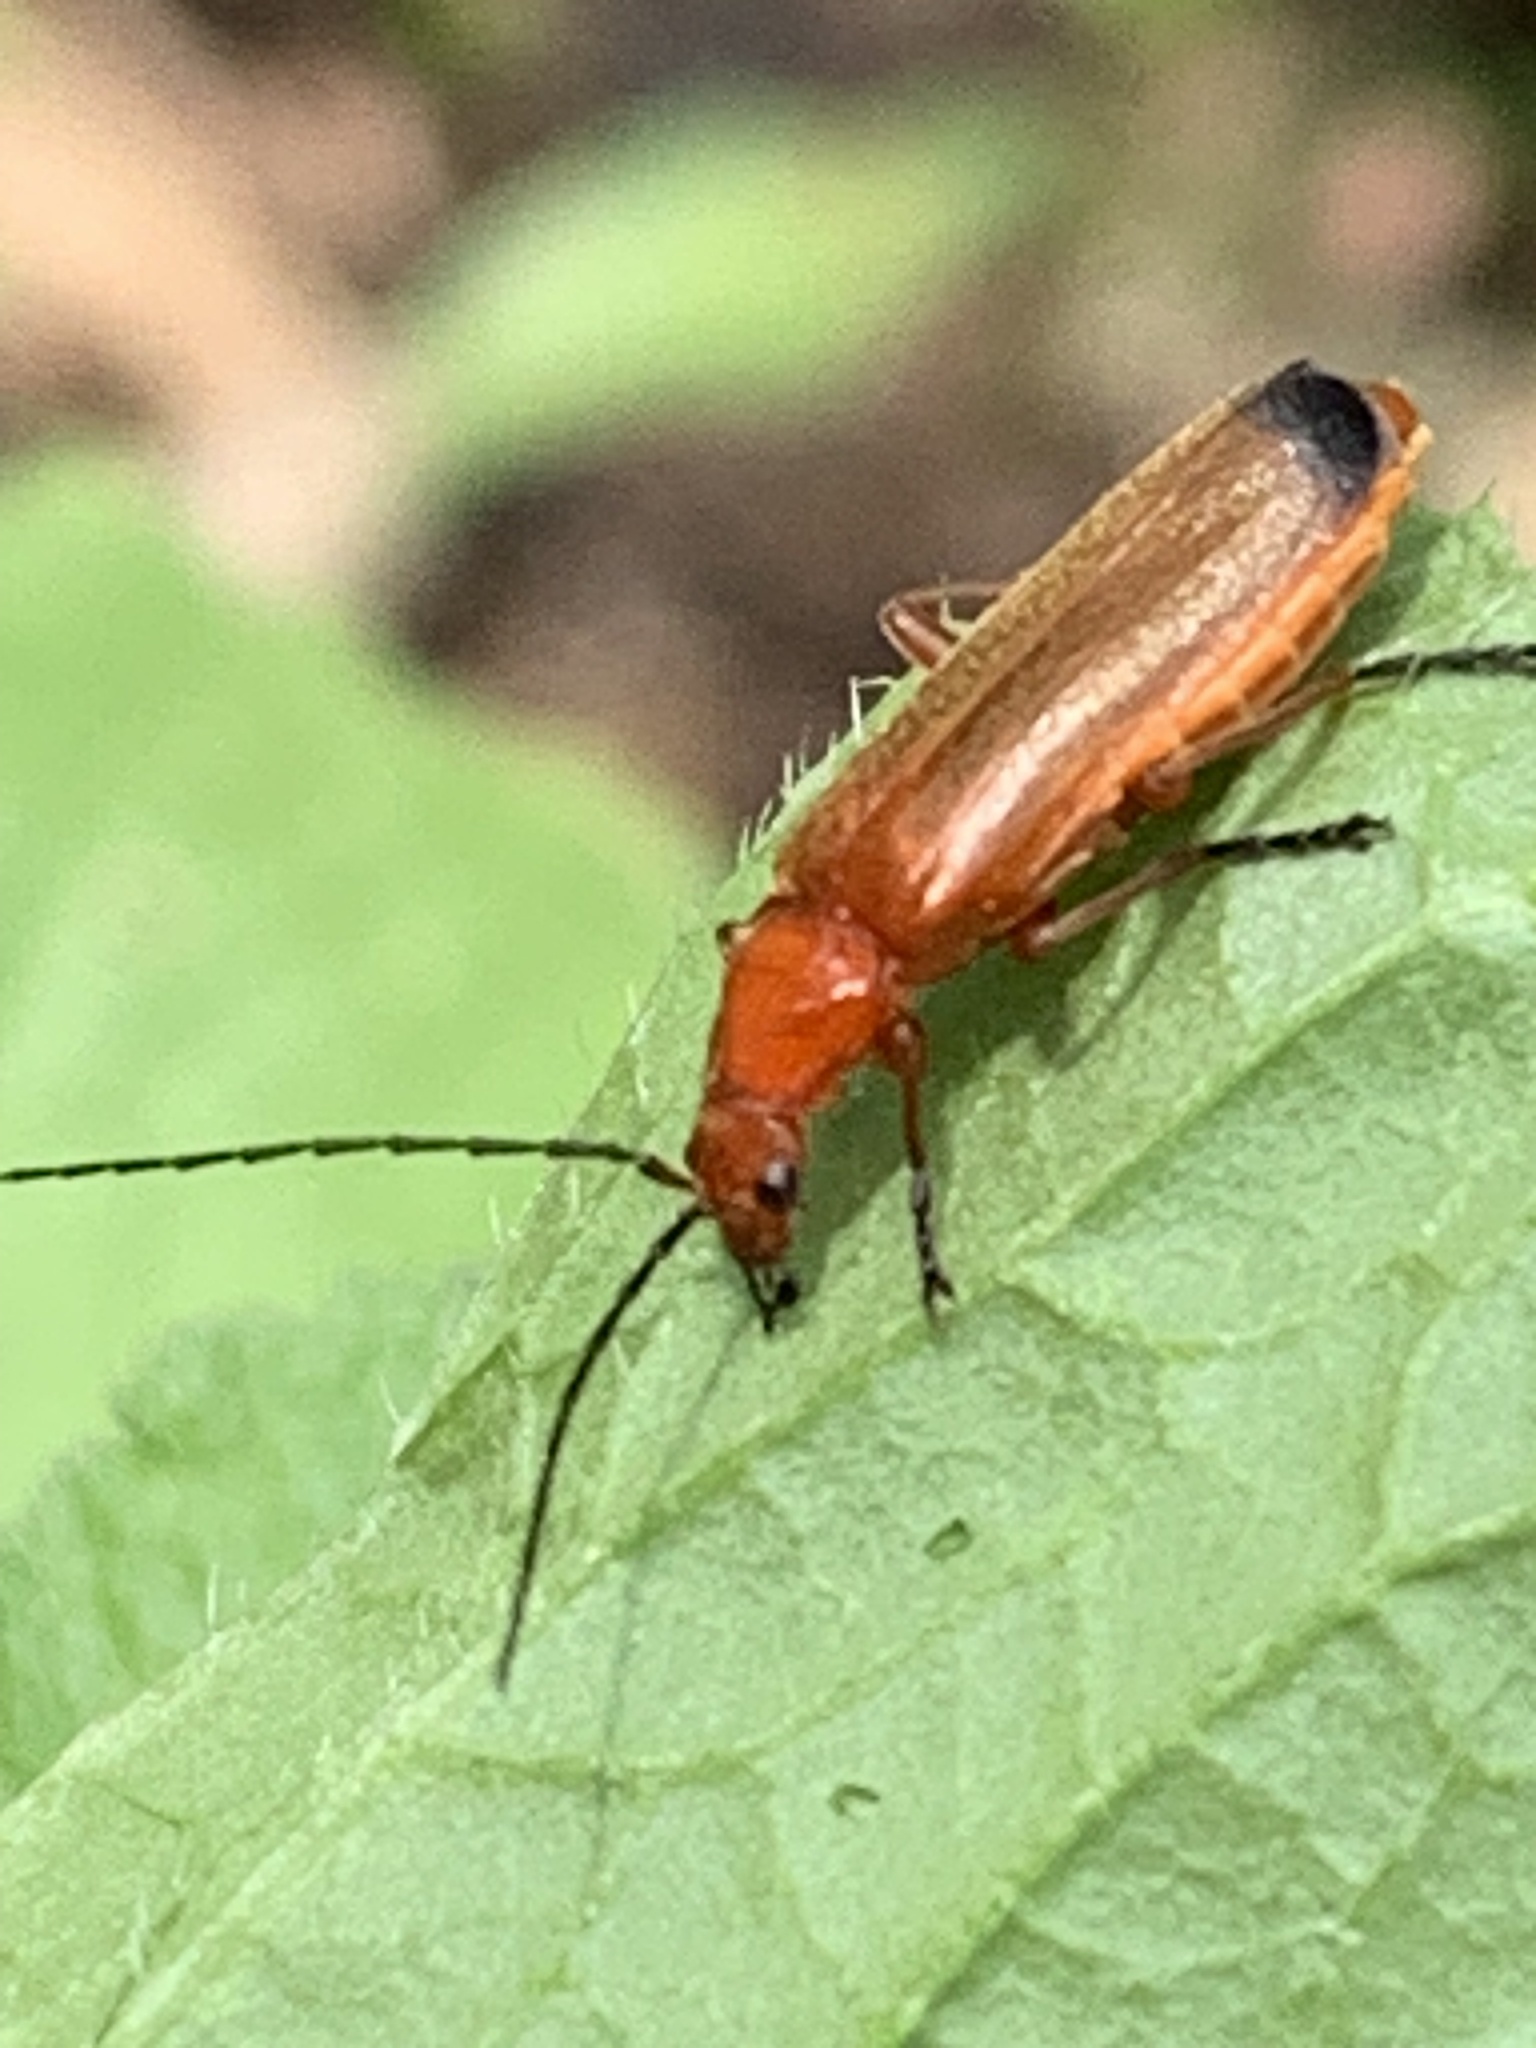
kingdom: Animalia
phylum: Arthropoda
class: Insecta
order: Coleoptera
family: Cantharidae
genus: Rhagonycha
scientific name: Rhagonycha fulva
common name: Common red soldier beetle
